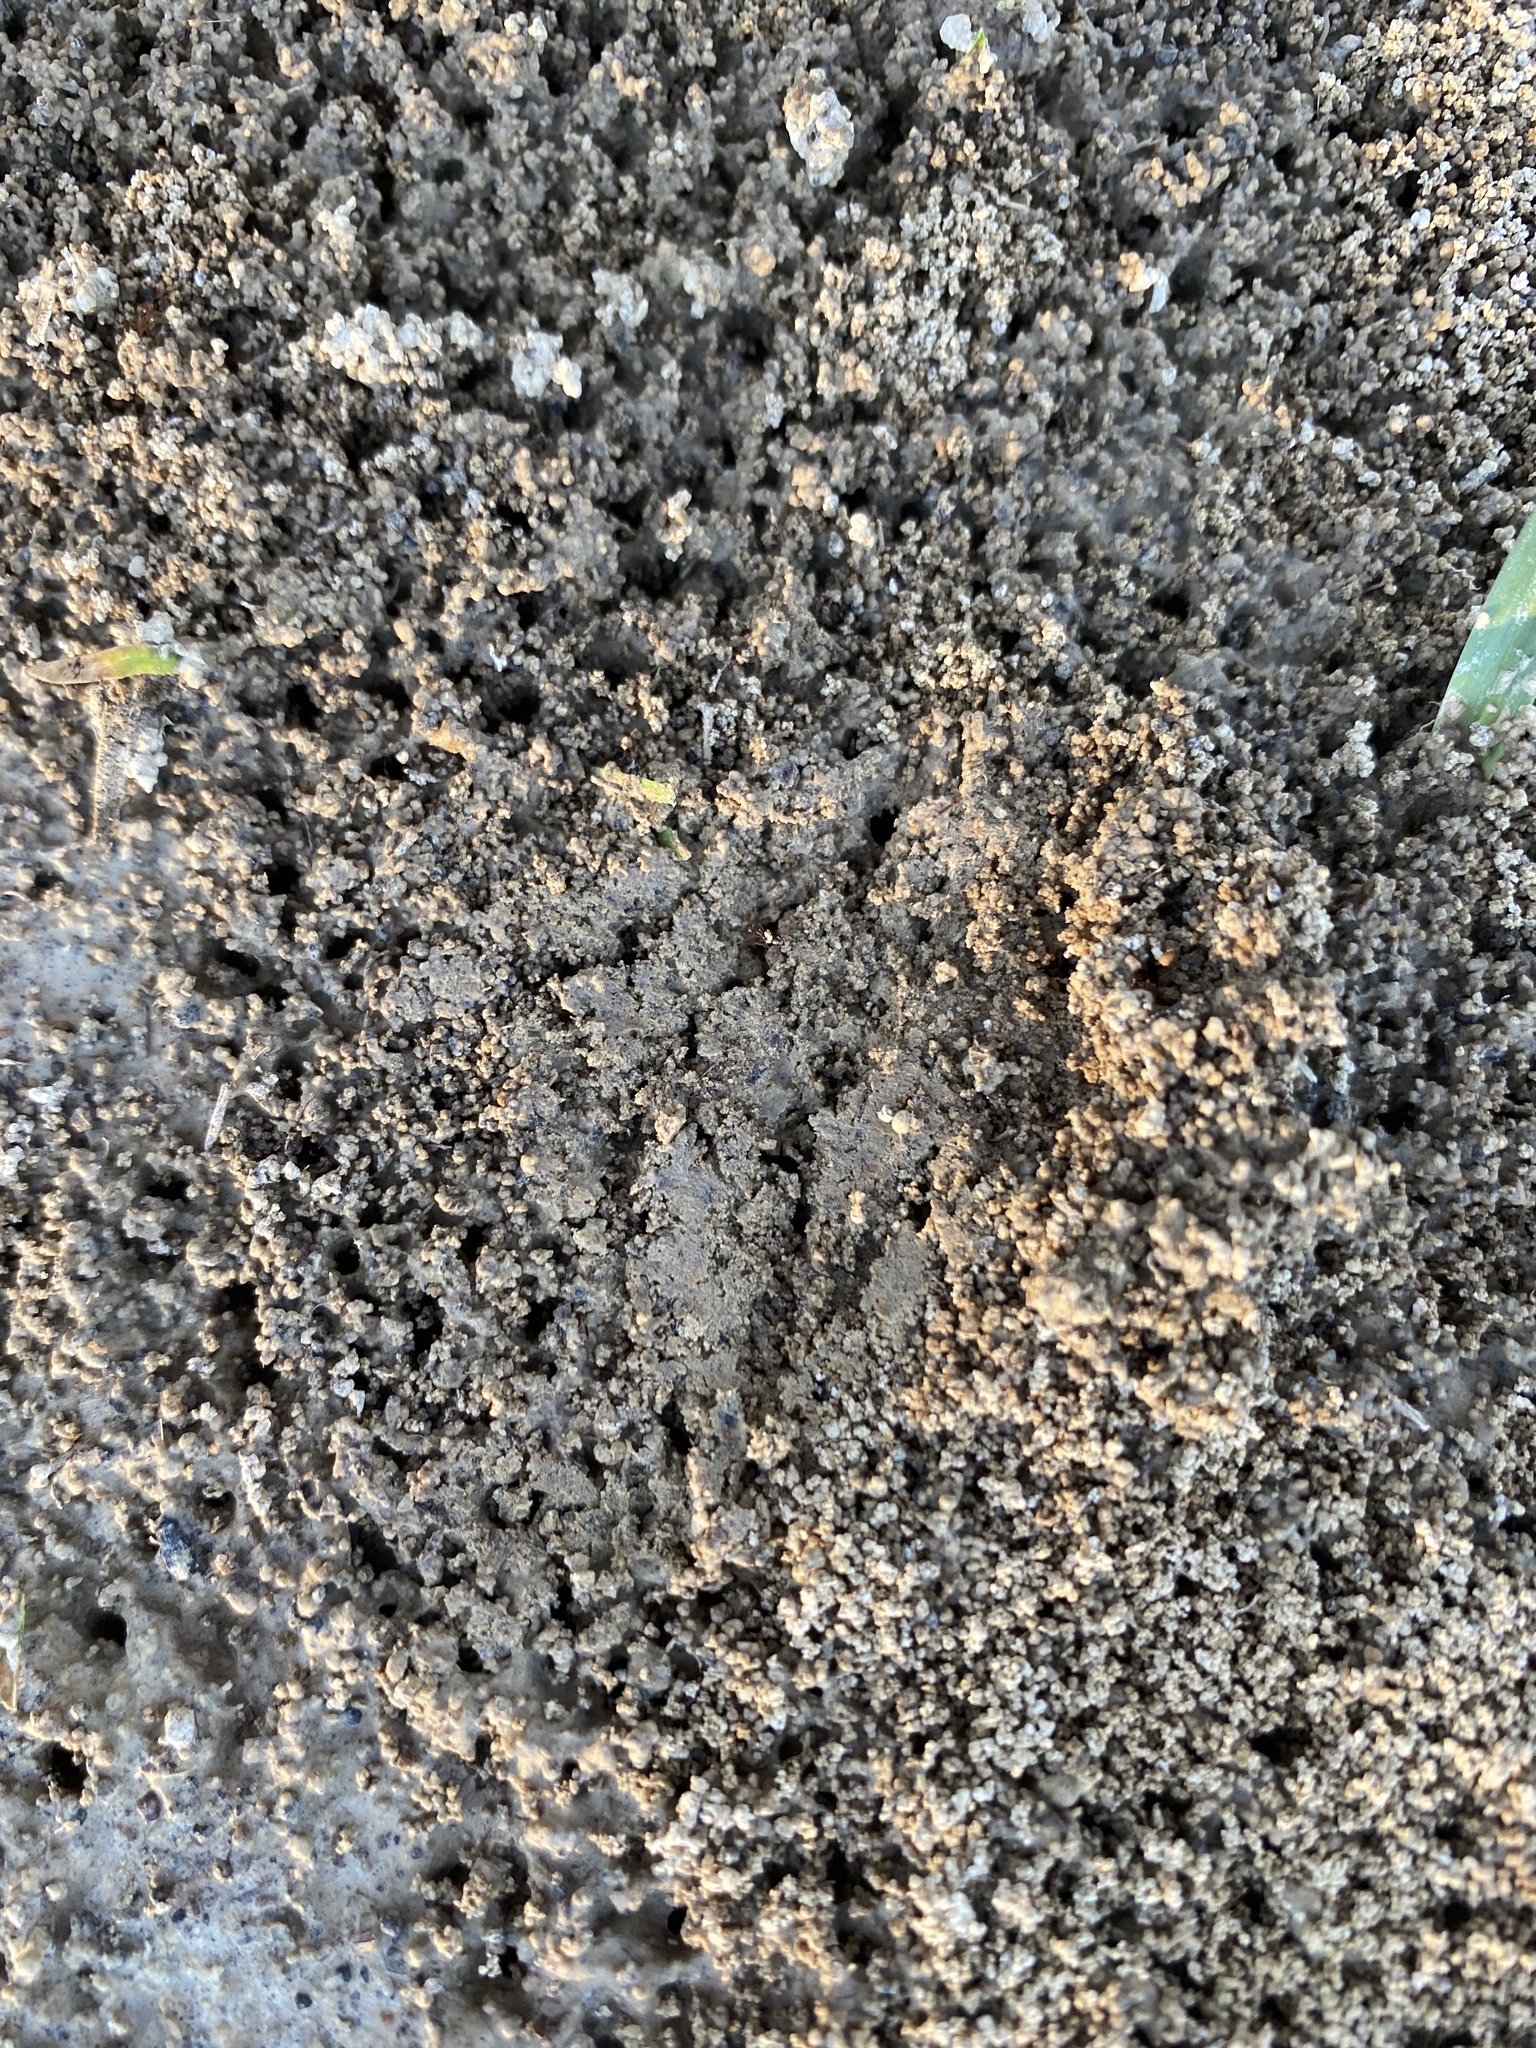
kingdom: Animalia
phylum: Arthropoda
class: Insecta
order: Hymenoptera
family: Formicidae
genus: Solenopsis
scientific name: Solenopsis invicta
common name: Red imported fire ant
